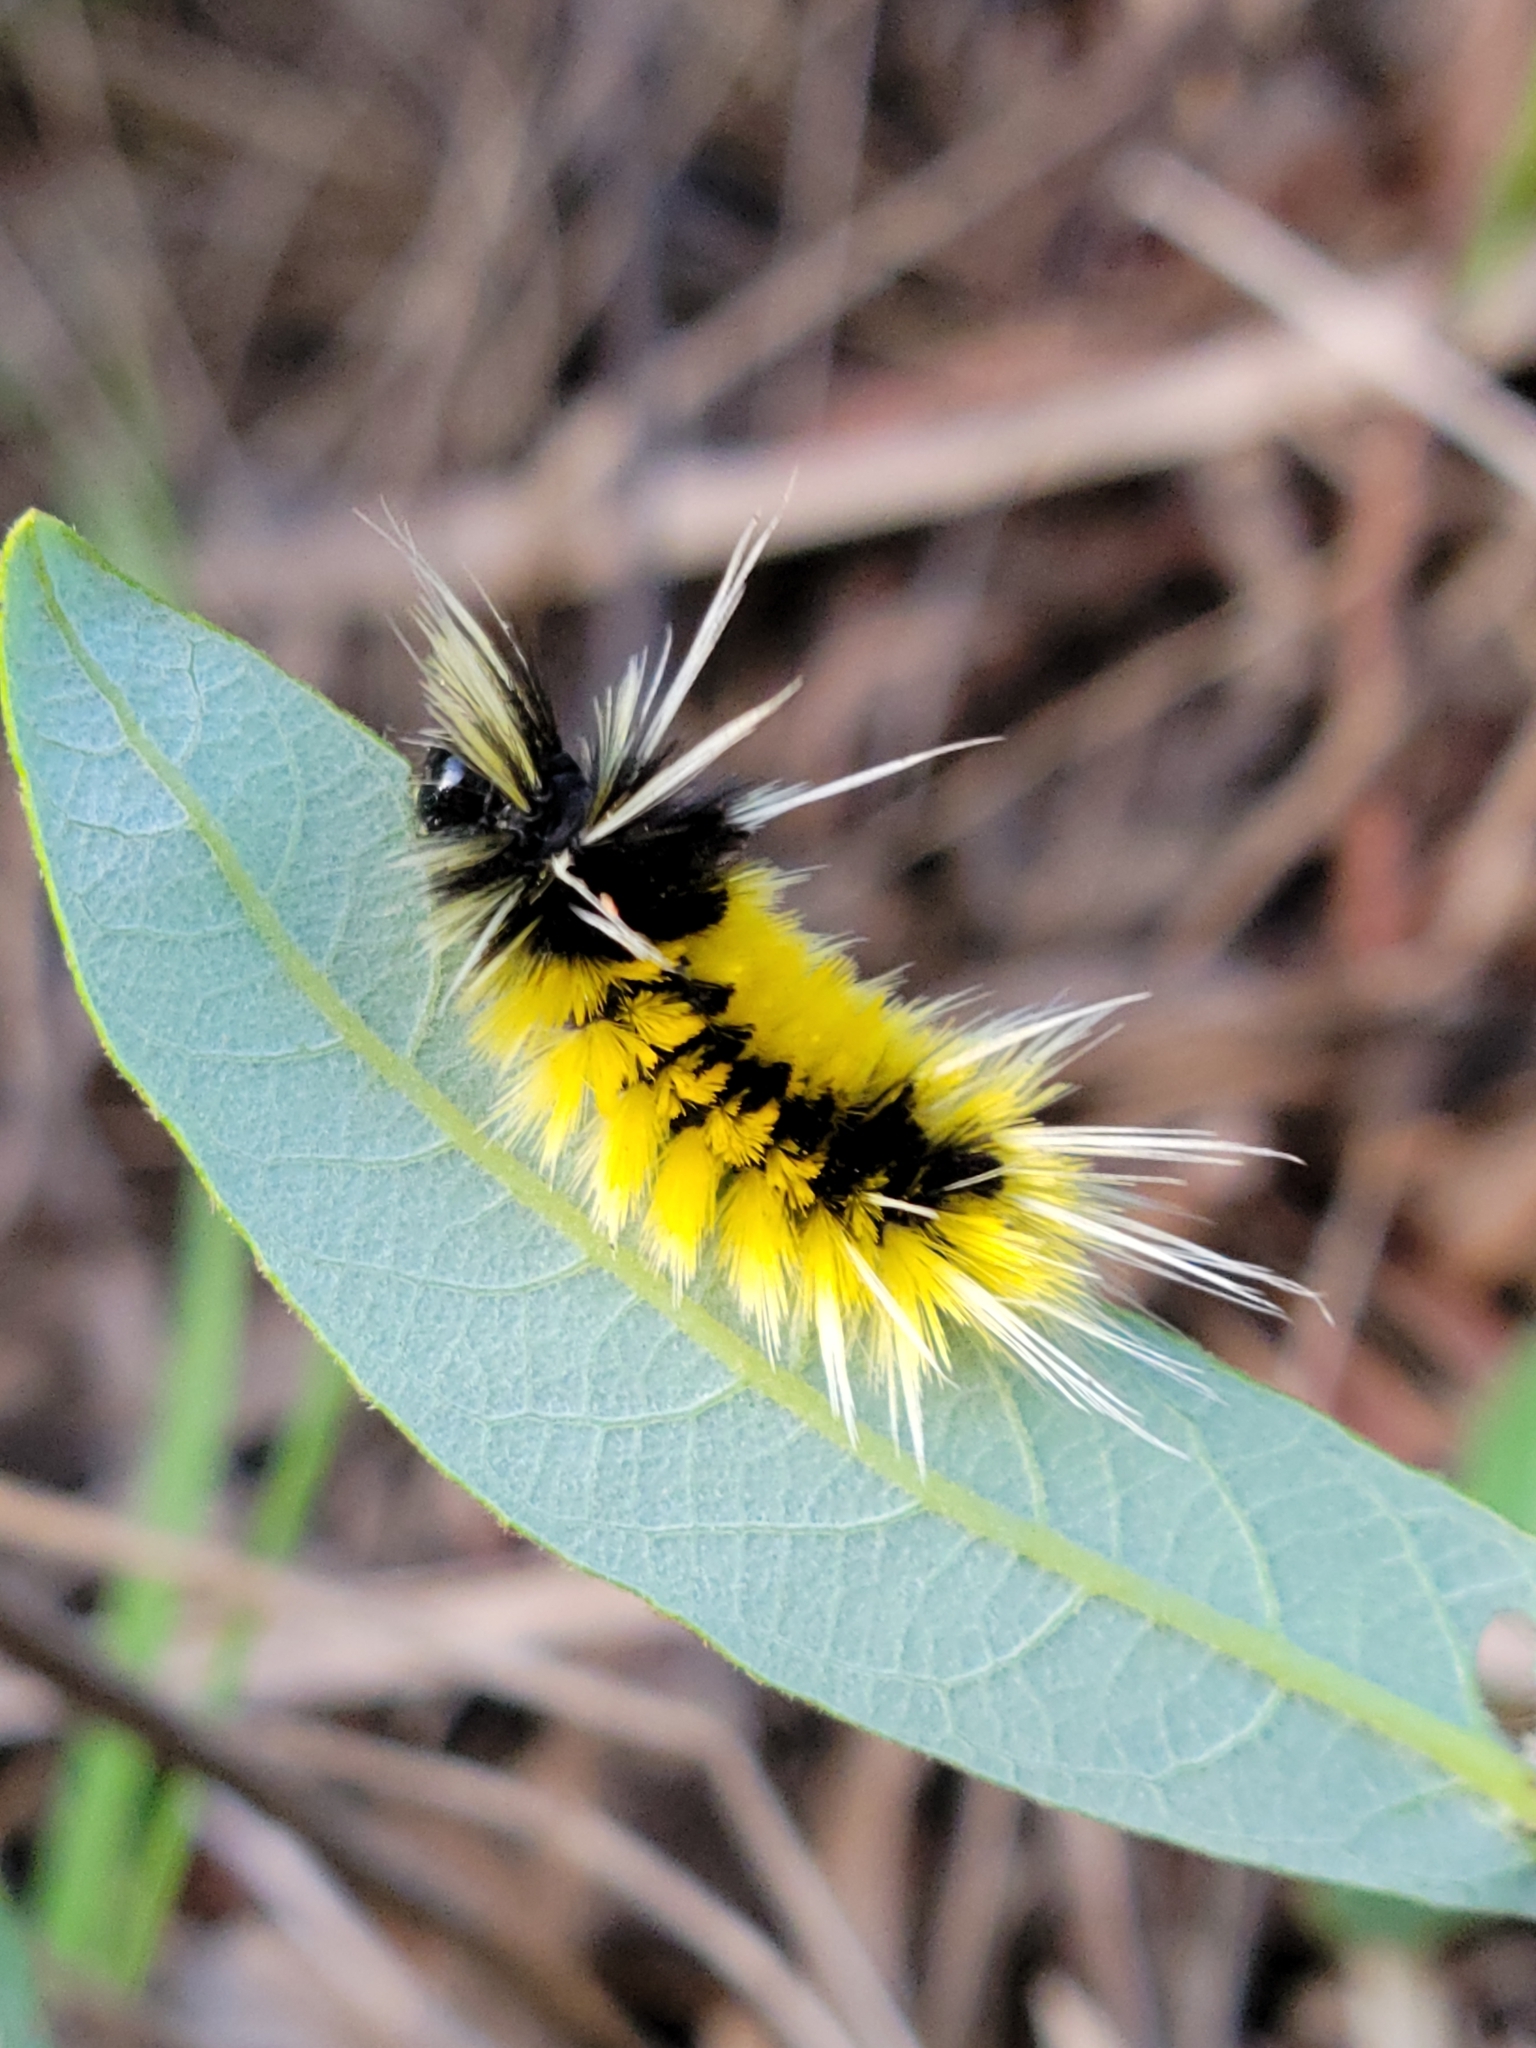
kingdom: Animalia
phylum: Arthropoda
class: Insecta
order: Lepidoptera
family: Erebidae
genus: Lophocampa
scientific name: Lophocampa maculata
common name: Spotted tussock moth
